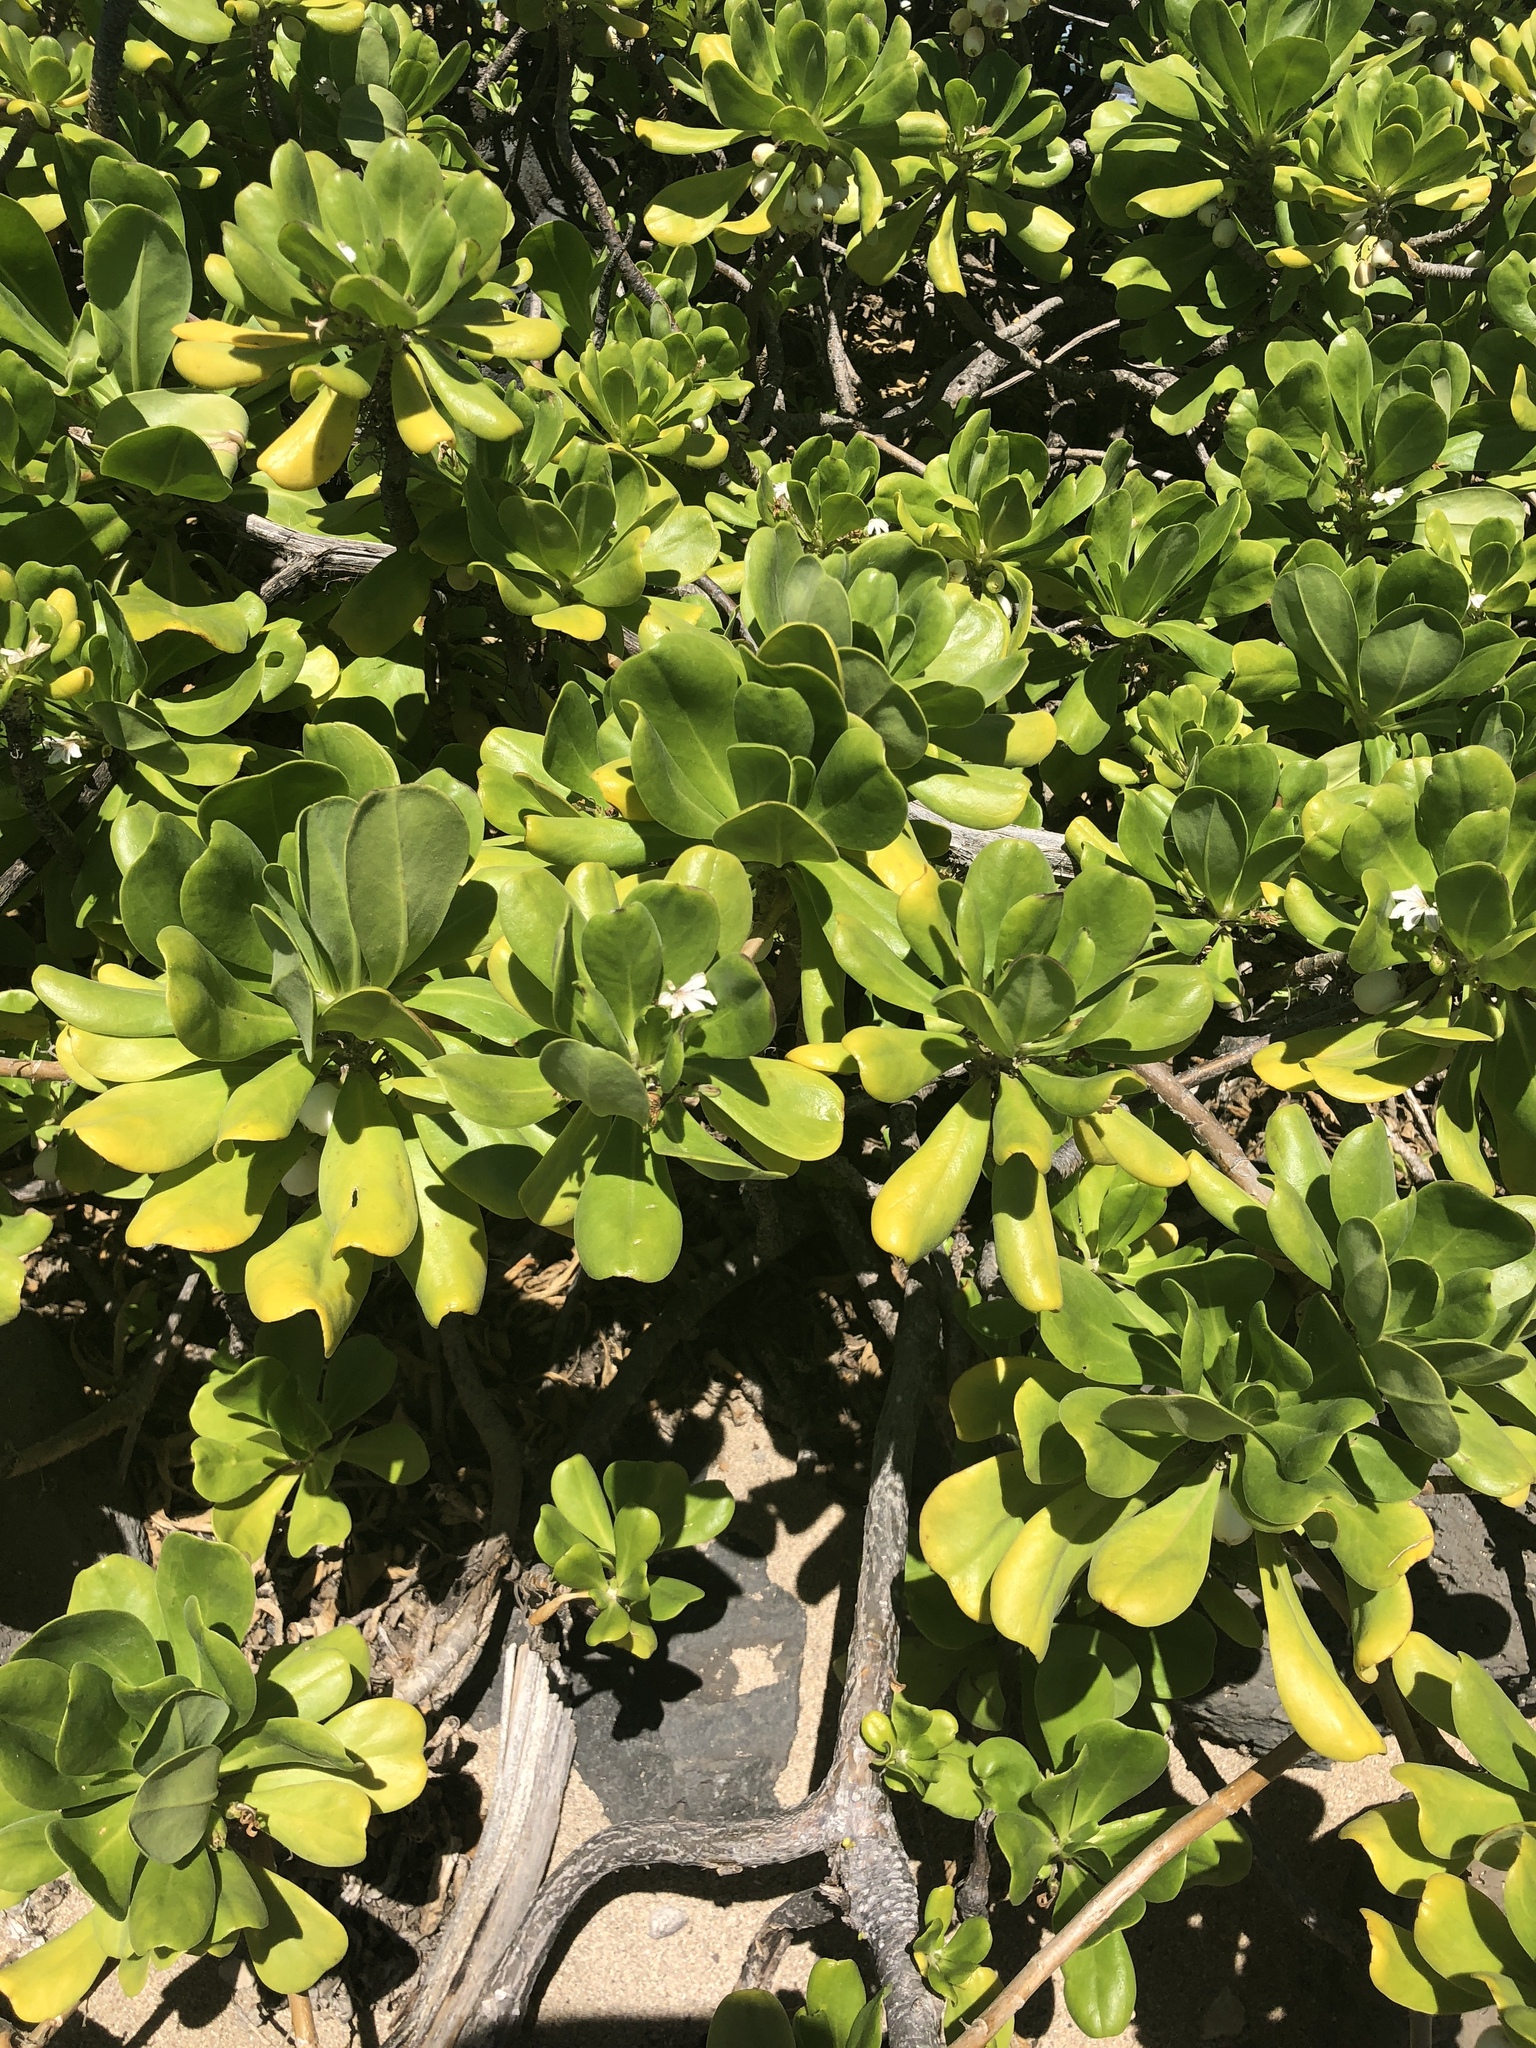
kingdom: Plantae
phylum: Tracheophyta
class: Magnoliopsida
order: Asterales
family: Goodeniaceae
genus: Scaevola
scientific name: Scaevola taccada
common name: Sea lettucetree
